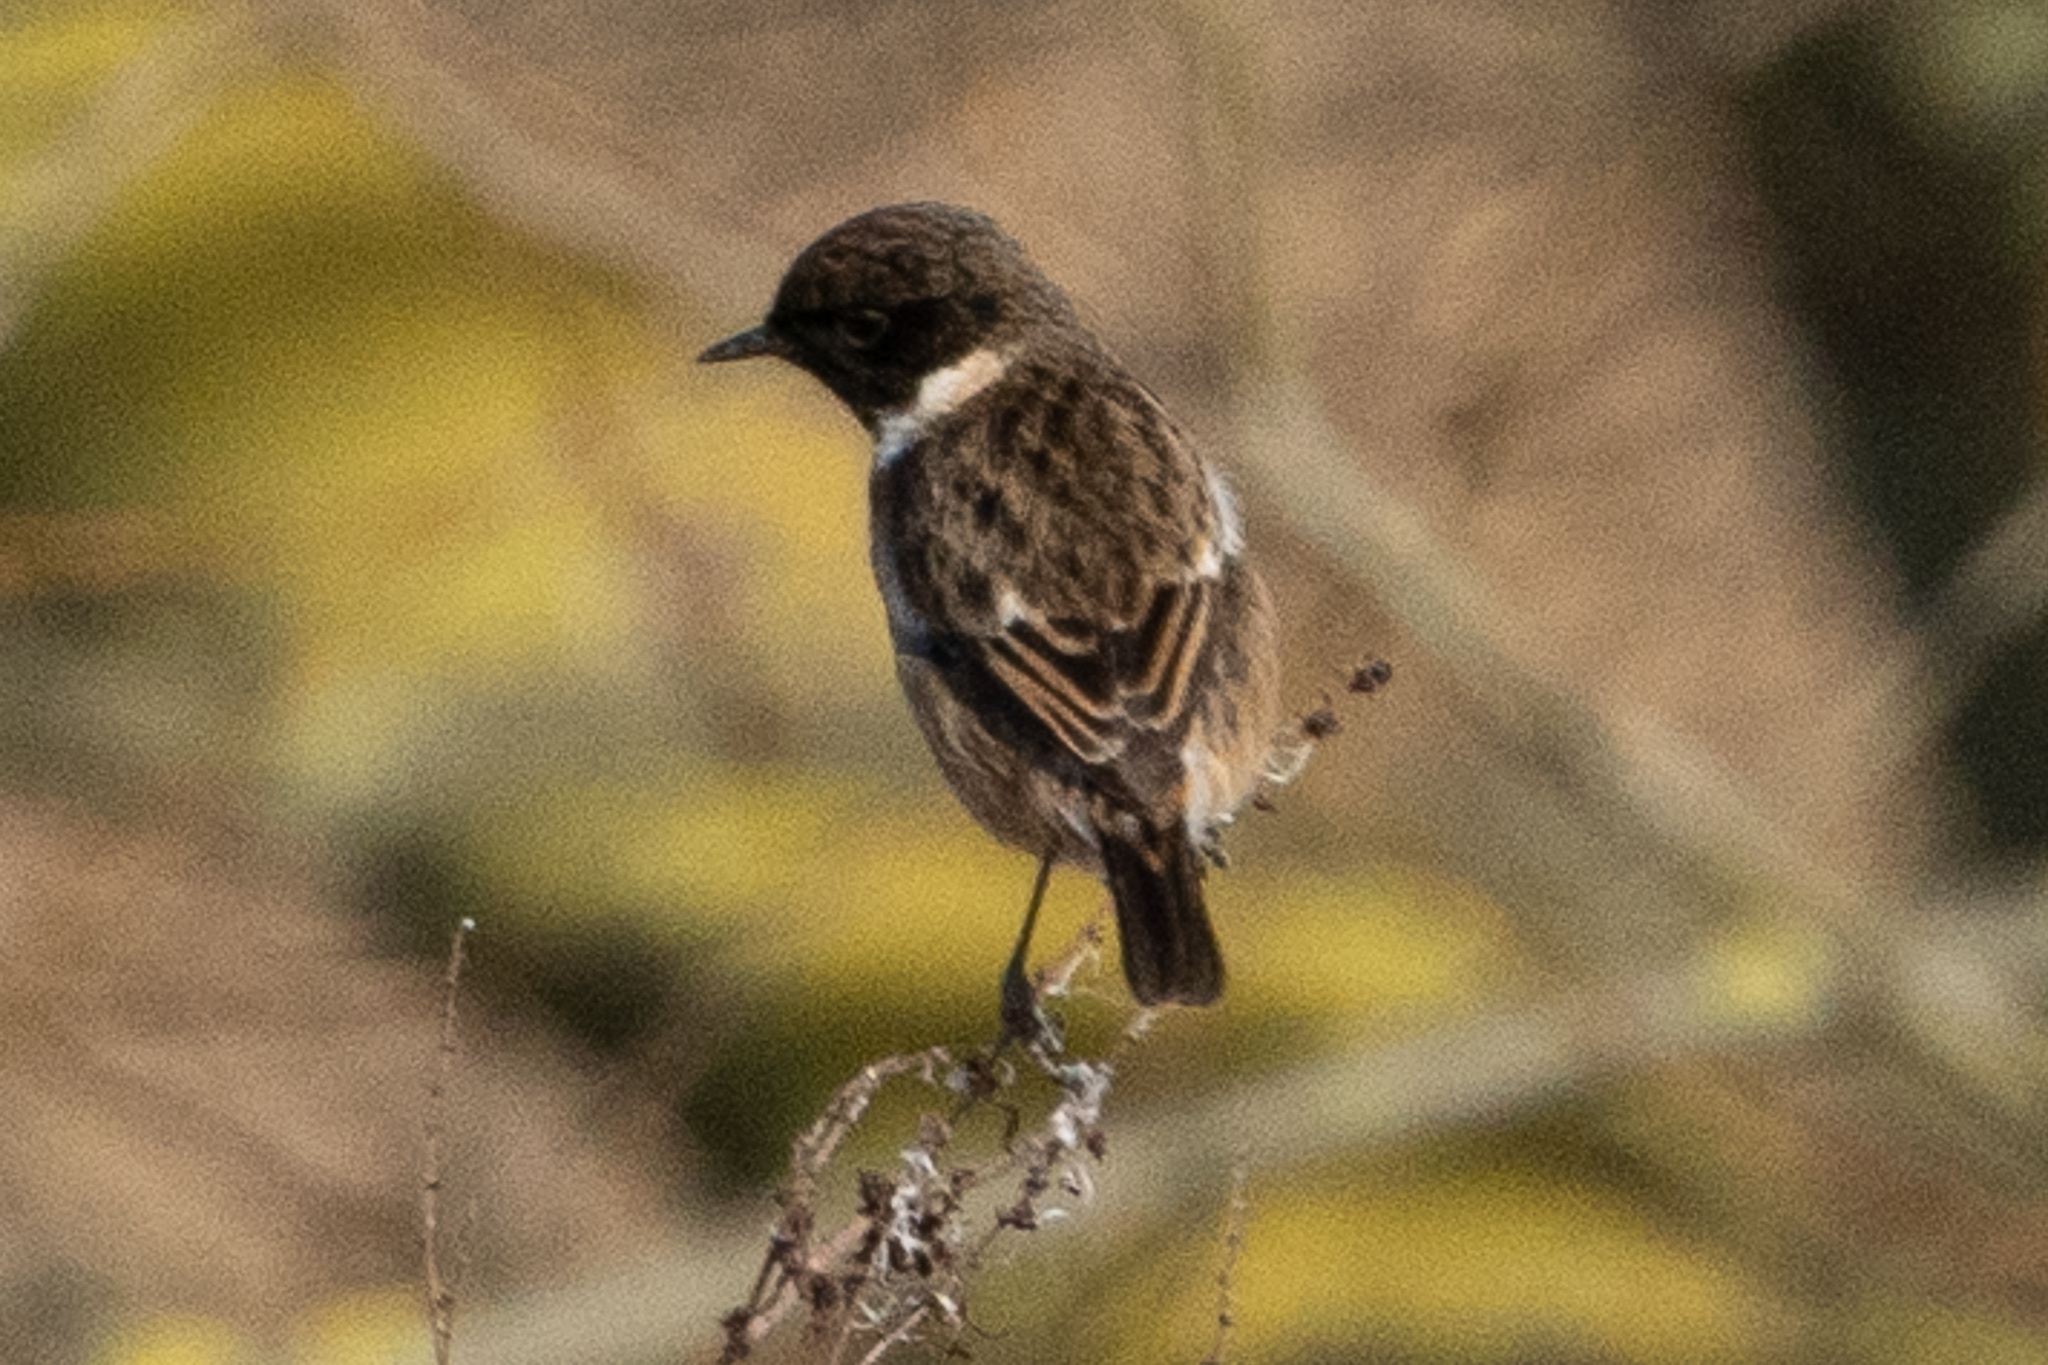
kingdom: Animalia
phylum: Chordata
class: Aves
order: Passeriformes
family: Muscicapidae
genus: Saxicola
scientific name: Saxicola rubicola
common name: European stonechat
